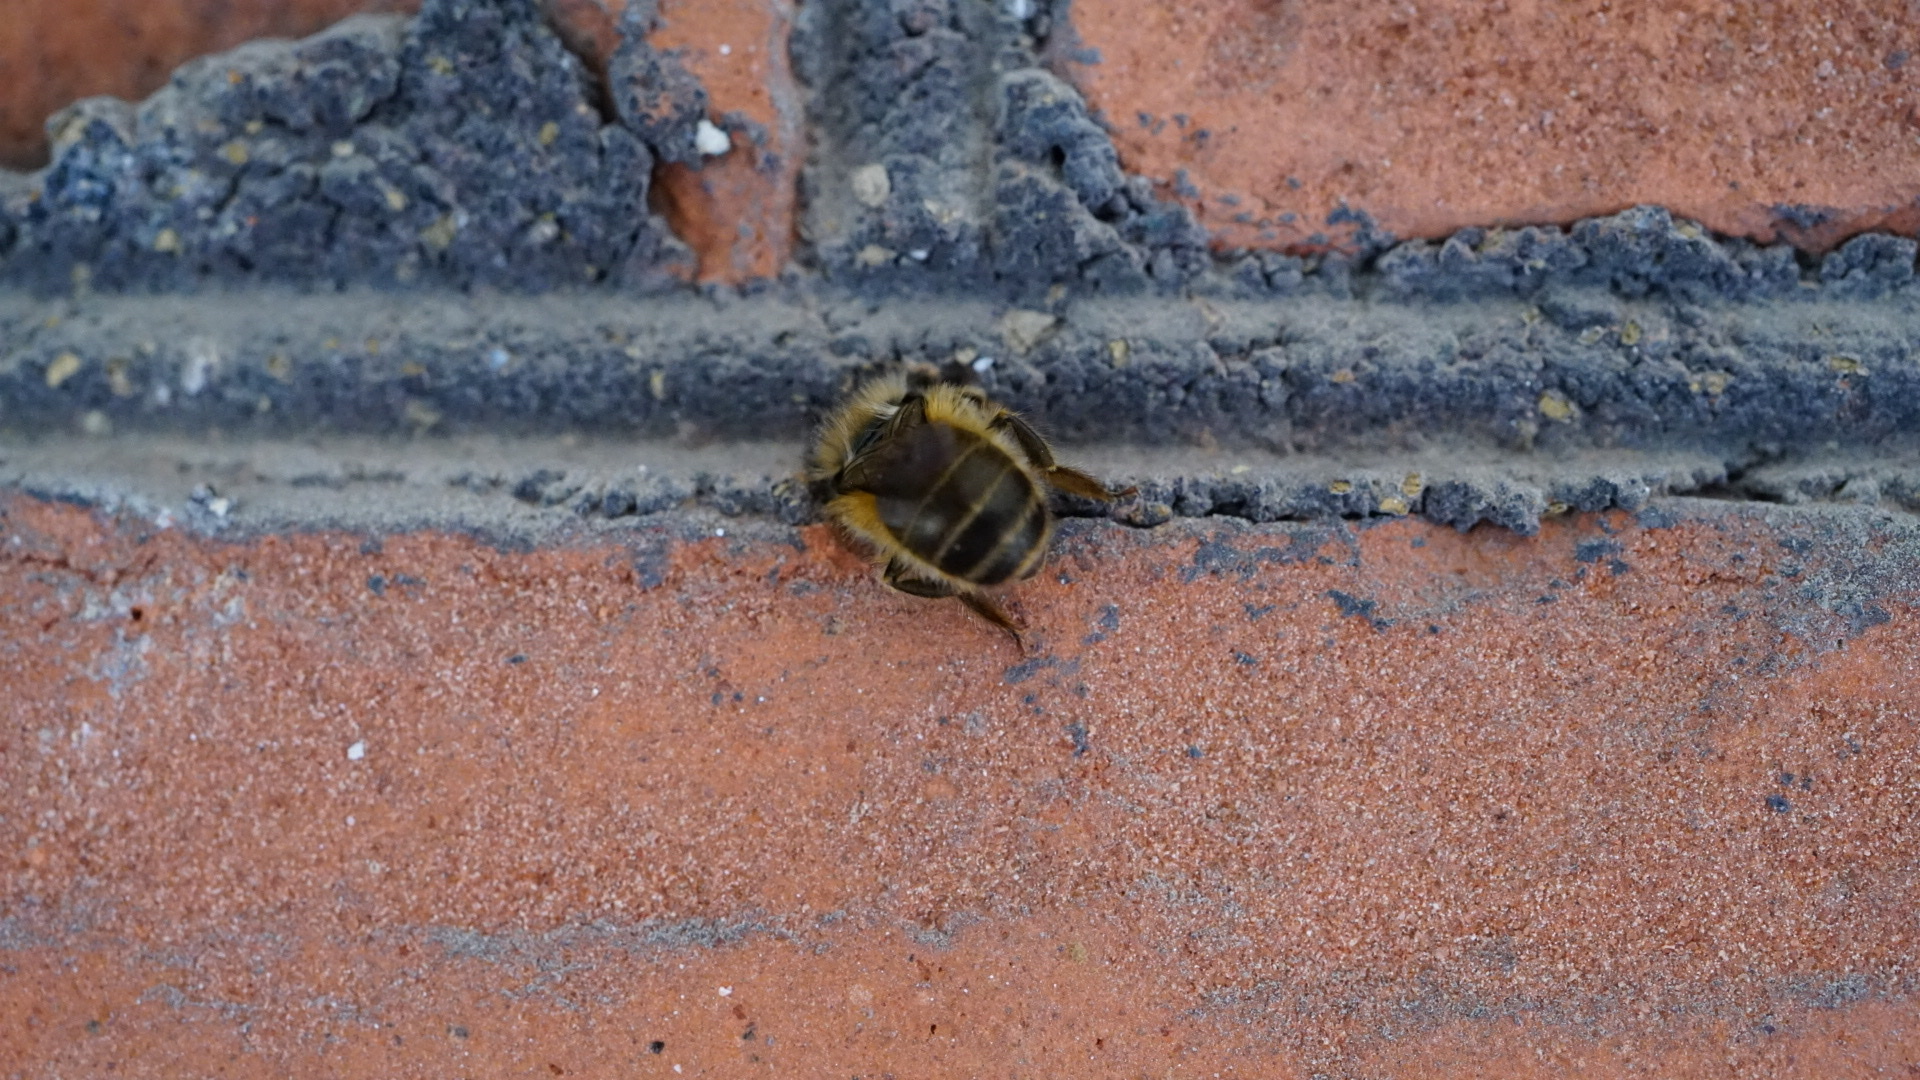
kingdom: Animalia
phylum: Arthropoda
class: Insecta
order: Hymenoptera
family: Megachilidae
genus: Osmia
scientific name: Osmia cornifrons
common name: Horn-faced bee
